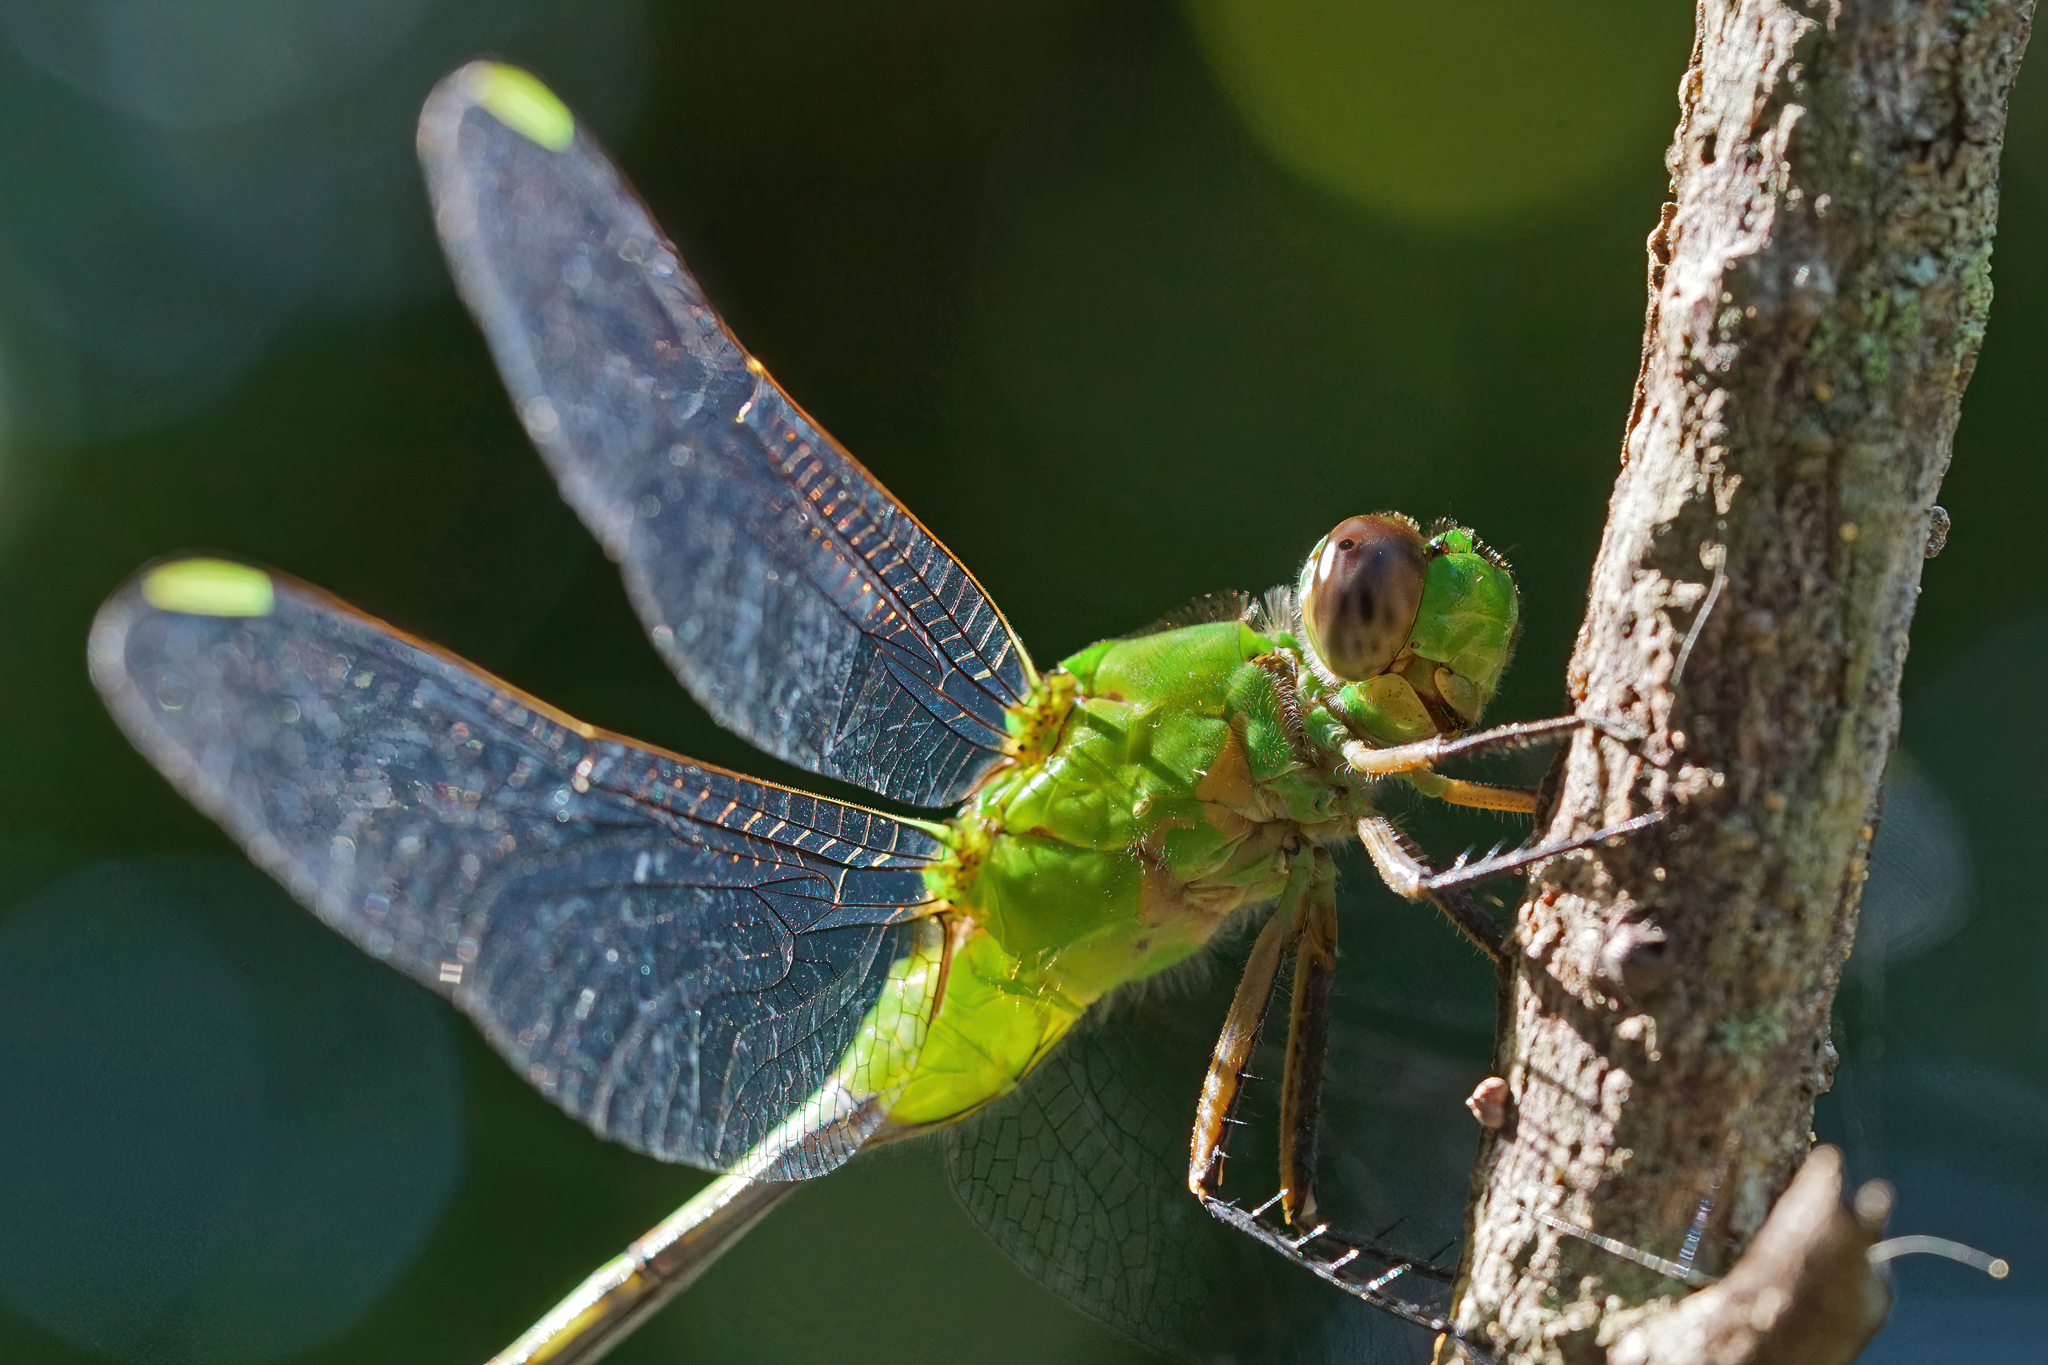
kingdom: Animalia
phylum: Arthropoda
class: Insecta
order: Odonata
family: Libellulidae
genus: Erythemis
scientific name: Erythemis vesiculosa
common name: Great pondhawk
